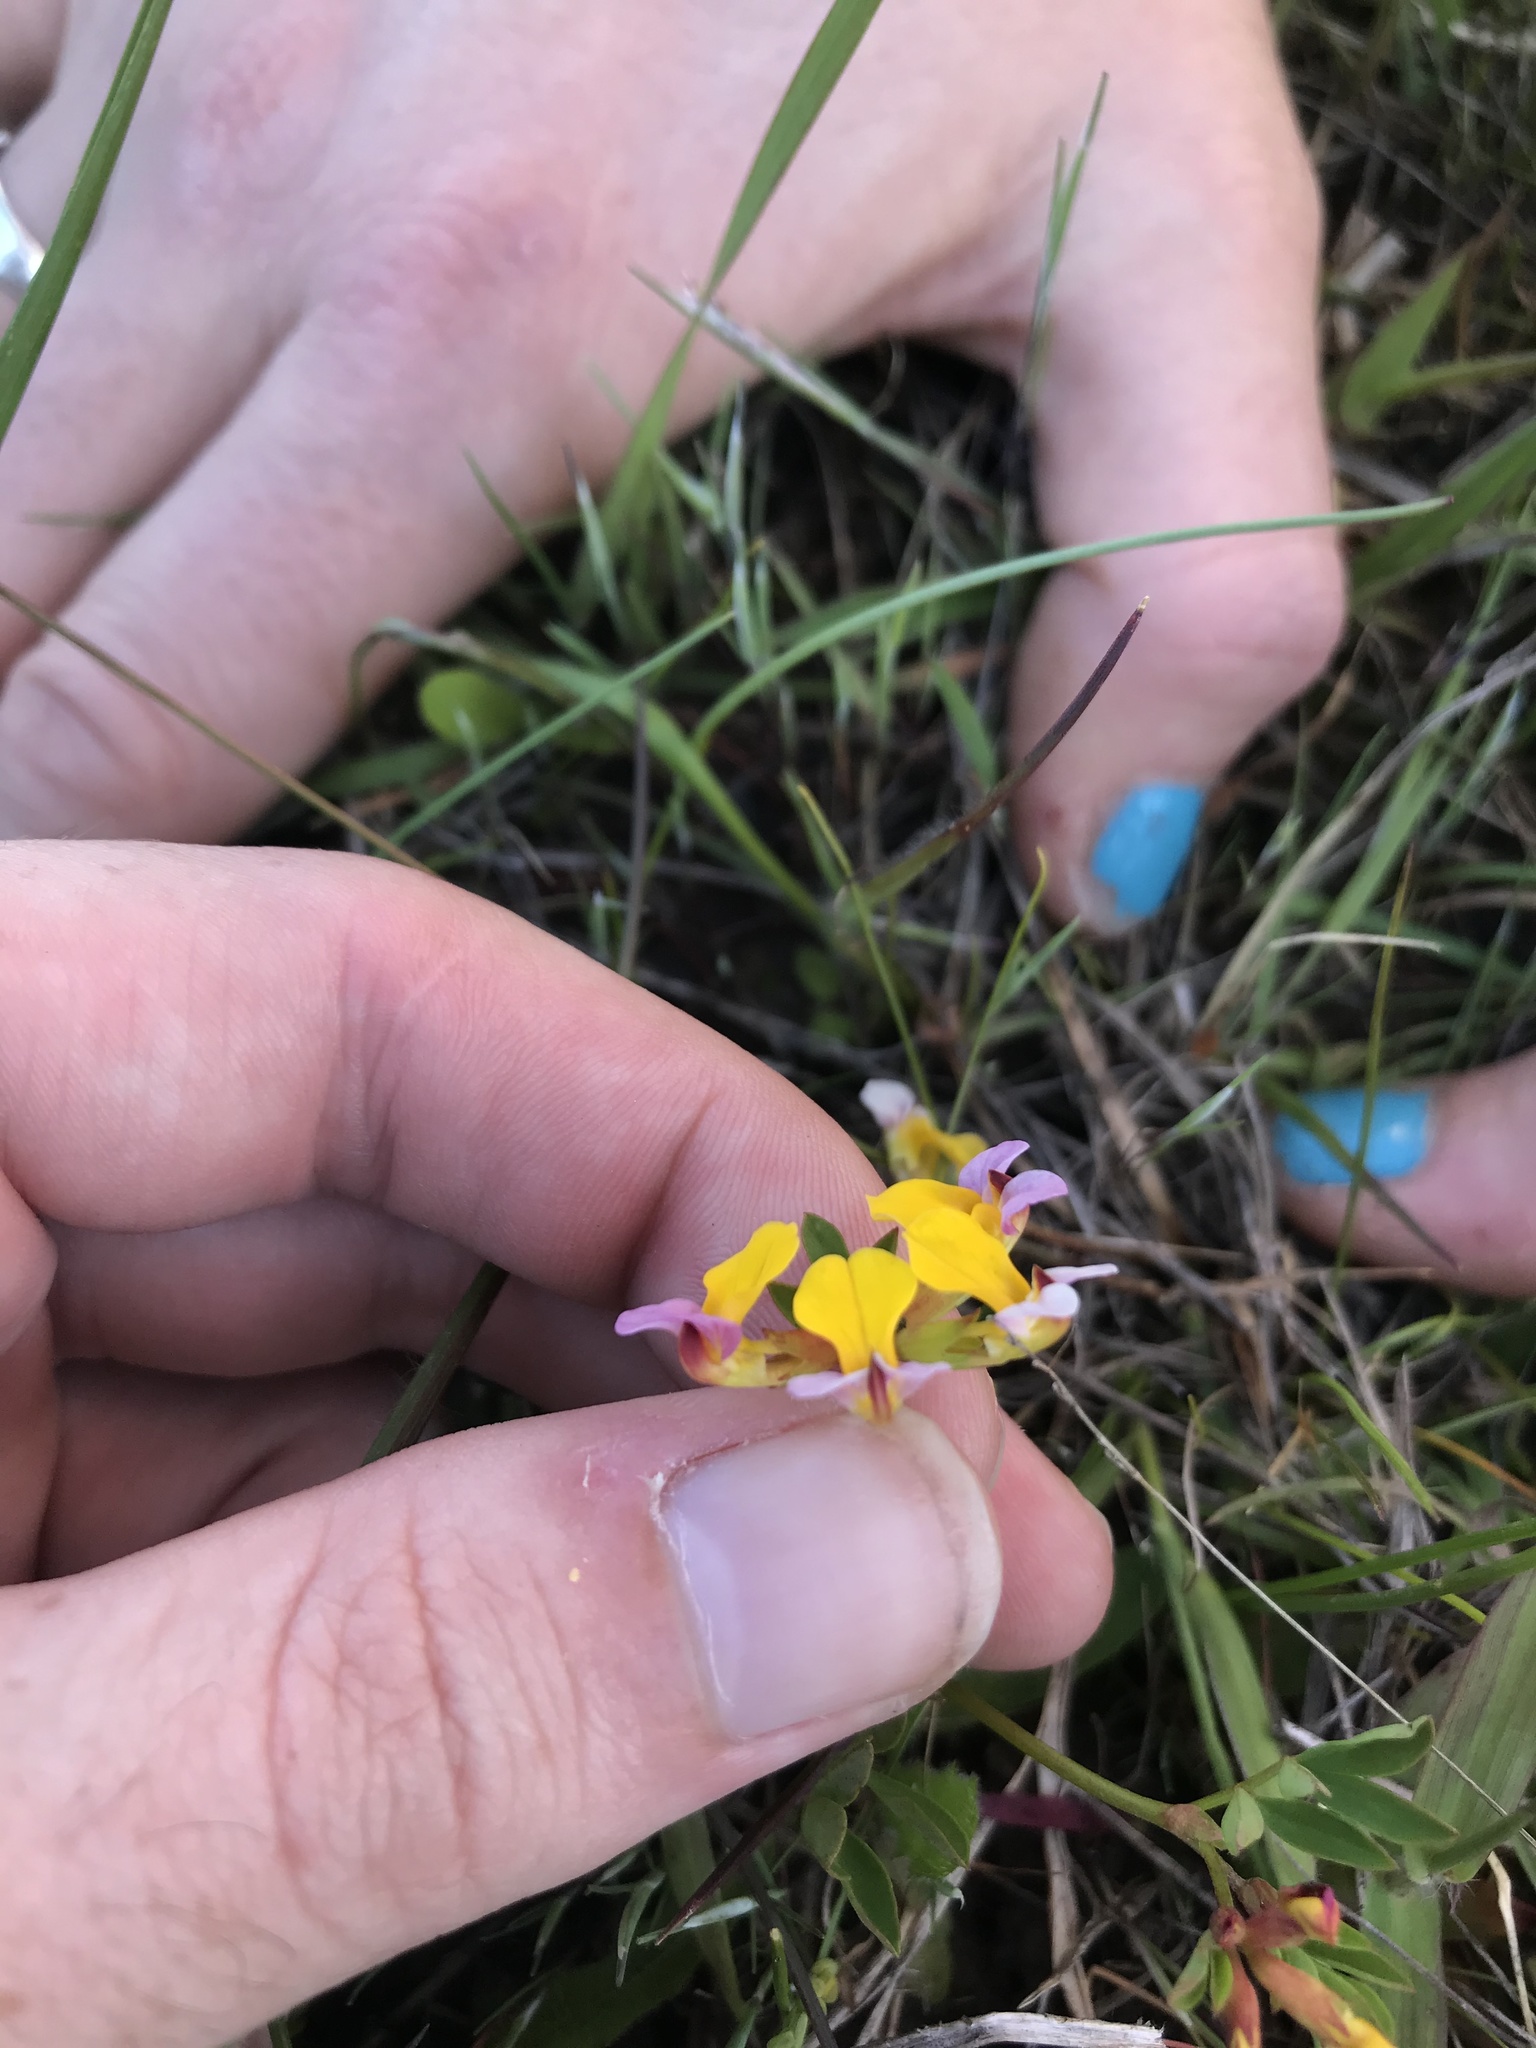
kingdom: Plantae
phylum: Tracheophyta
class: Magnoliopsida
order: Fabales
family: Fabaceae
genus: Hosackia
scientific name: Hosackia gracilis
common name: Seaside bird's-foot lotus
